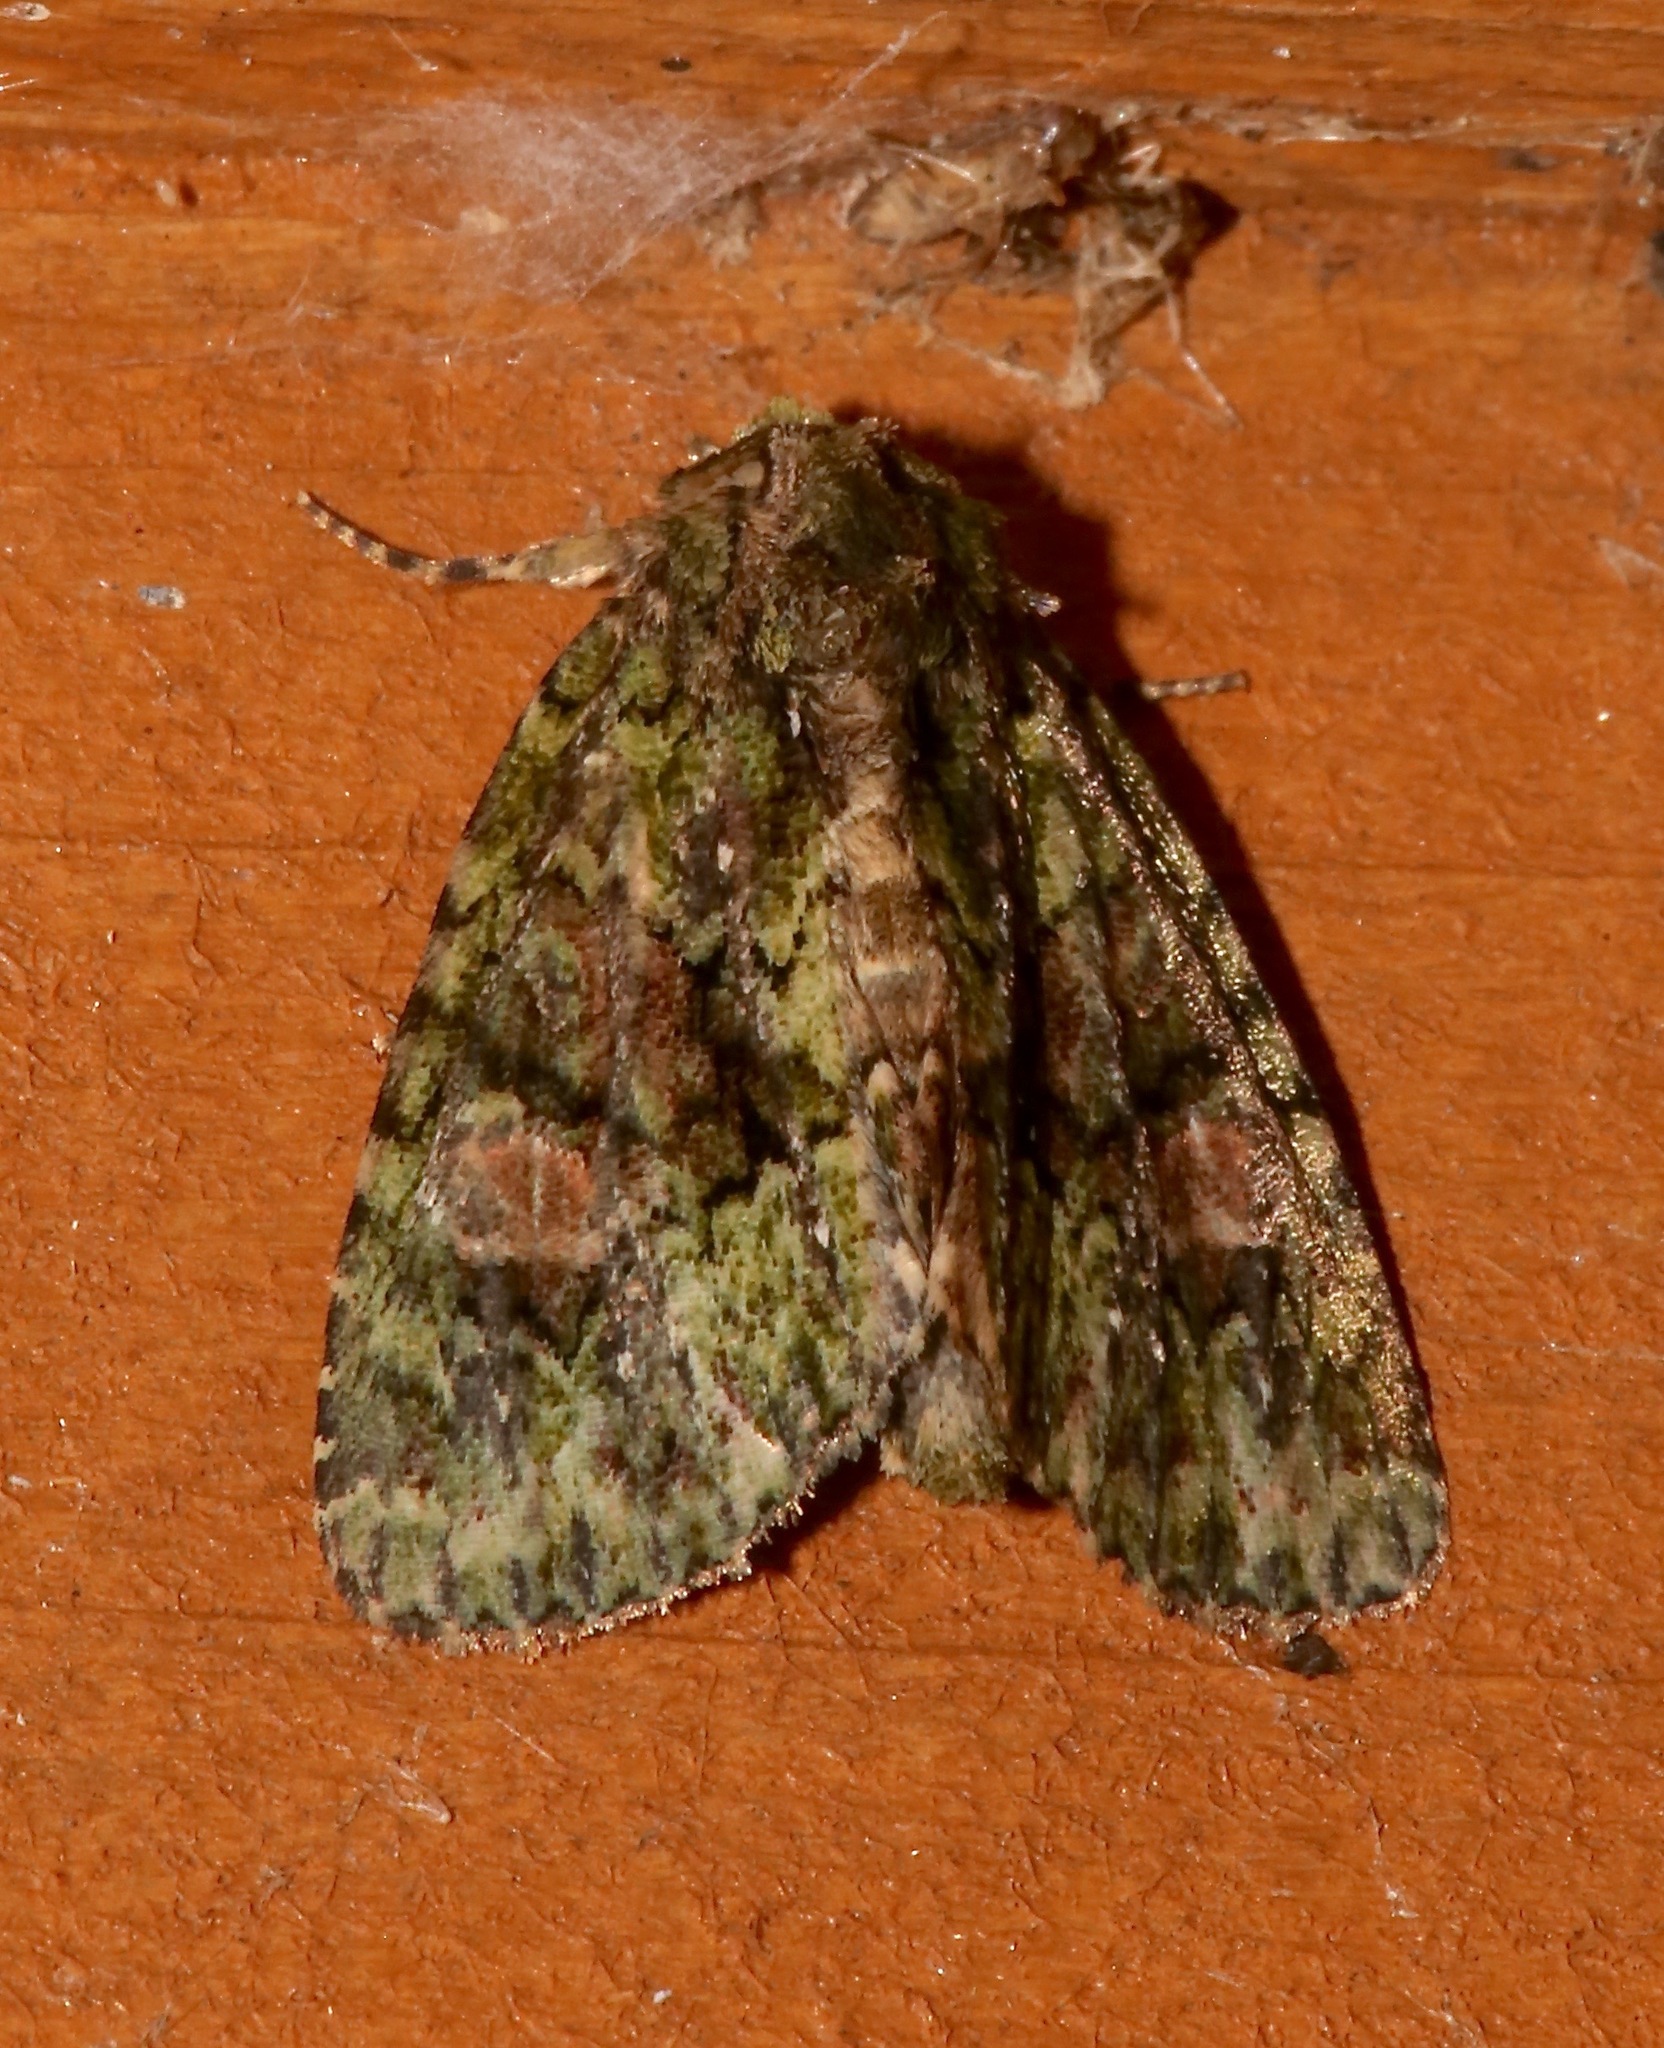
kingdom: Animalia
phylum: Arthropoda
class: Insecta
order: Lepidoptera
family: Noctuidae
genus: Phosphila
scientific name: Phosphila miselioides
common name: Spotted phosphila moth
